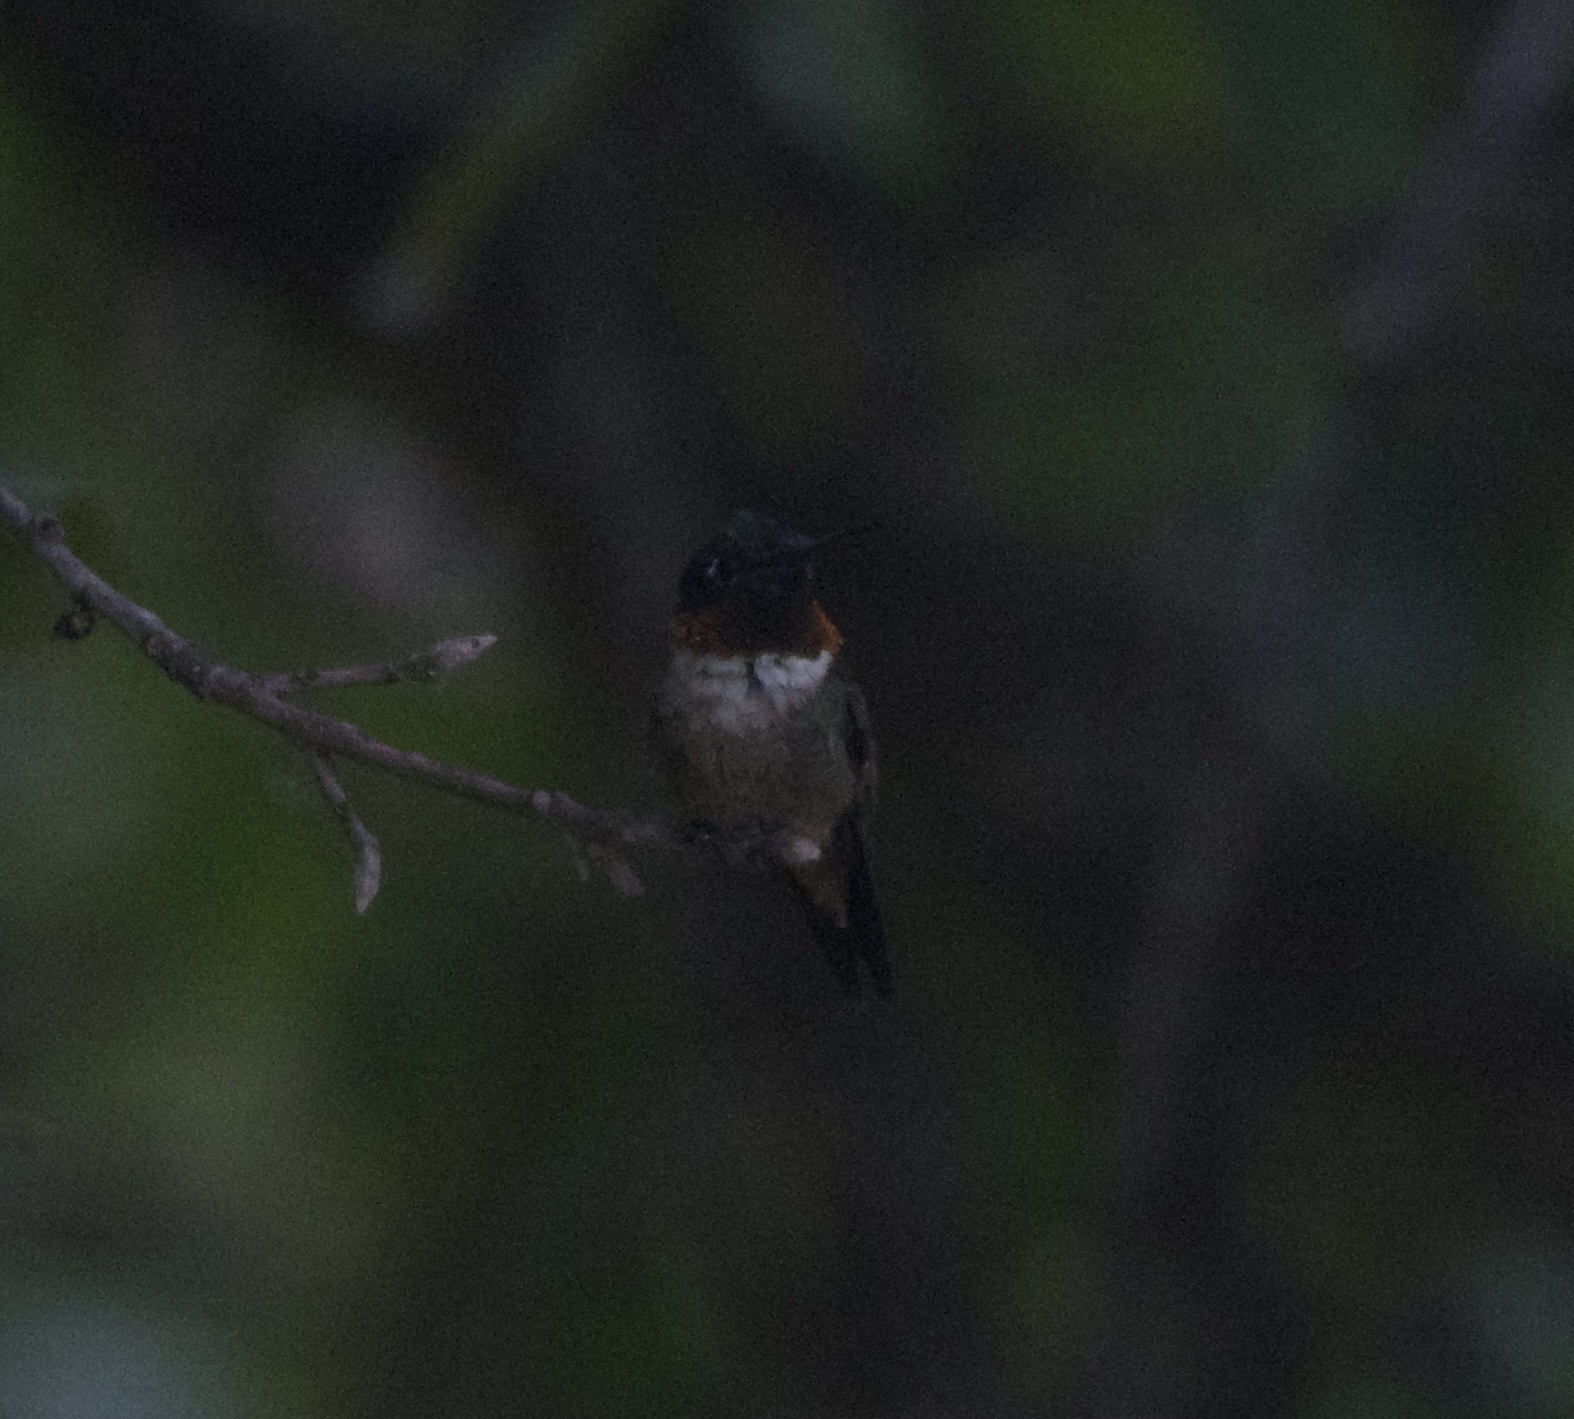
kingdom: Animalia
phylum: Chordata
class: Aves
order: Apodiformes
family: Trochilidae
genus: Archilochus
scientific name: Archilochus colubris
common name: Ruby-throated hummingbird
